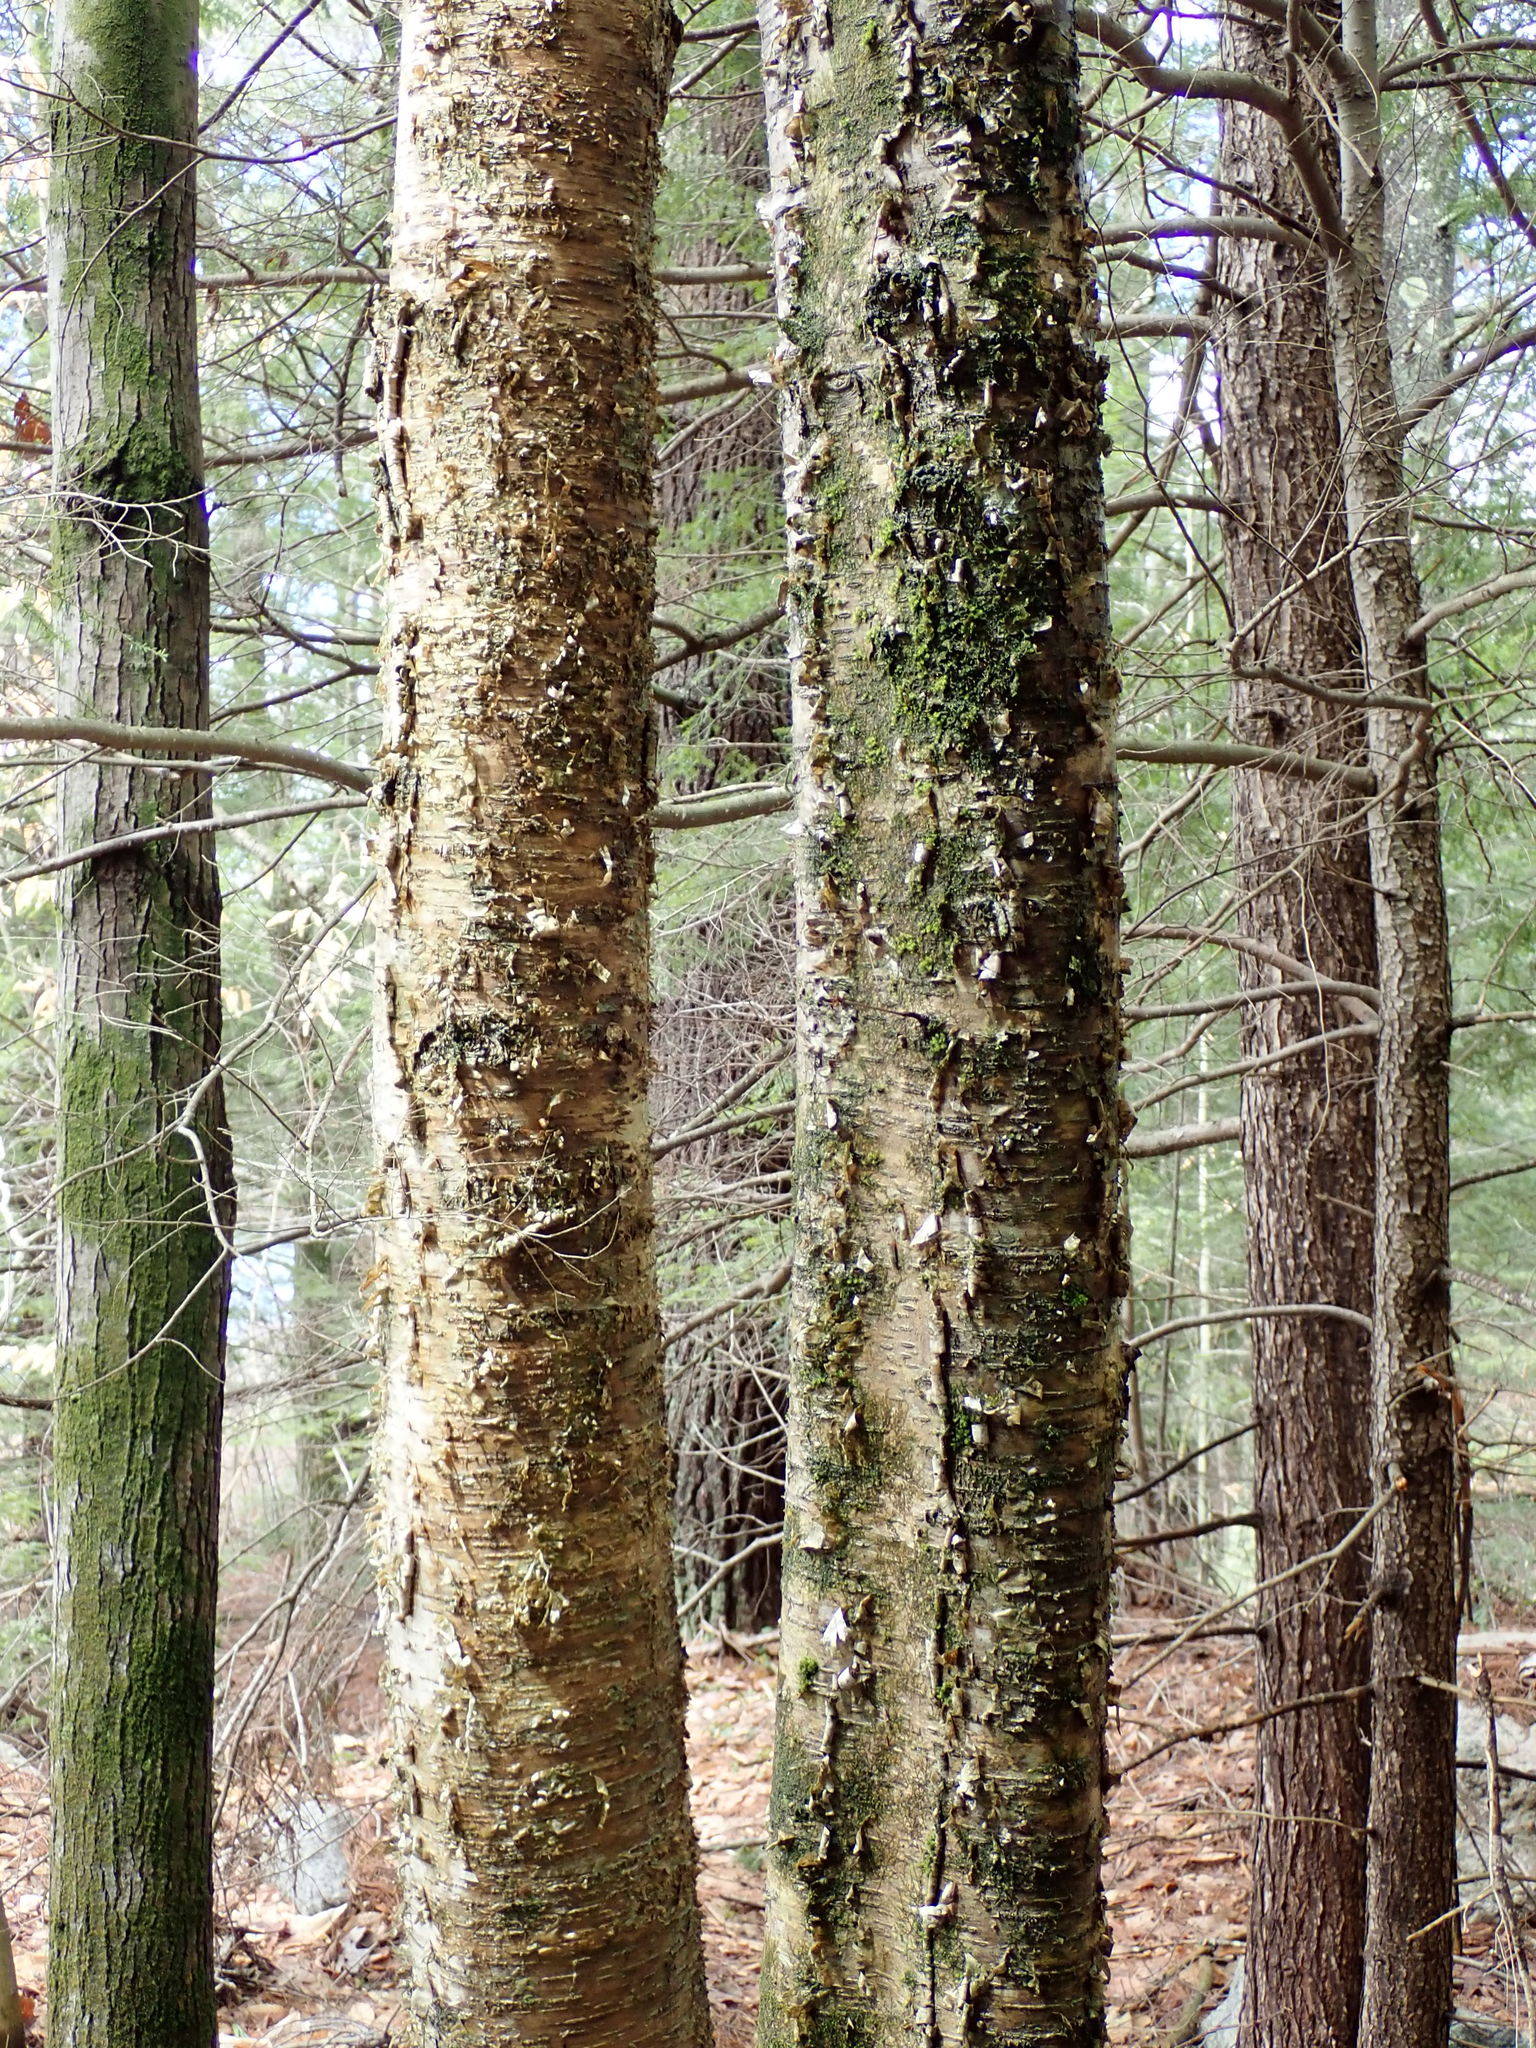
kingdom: Plantae
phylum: Tracheophyta
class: Magnoliopsida
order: Fagales
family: Betulaceae
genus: Betula
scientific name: Betula alleghaniensis
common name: Yellow birch
